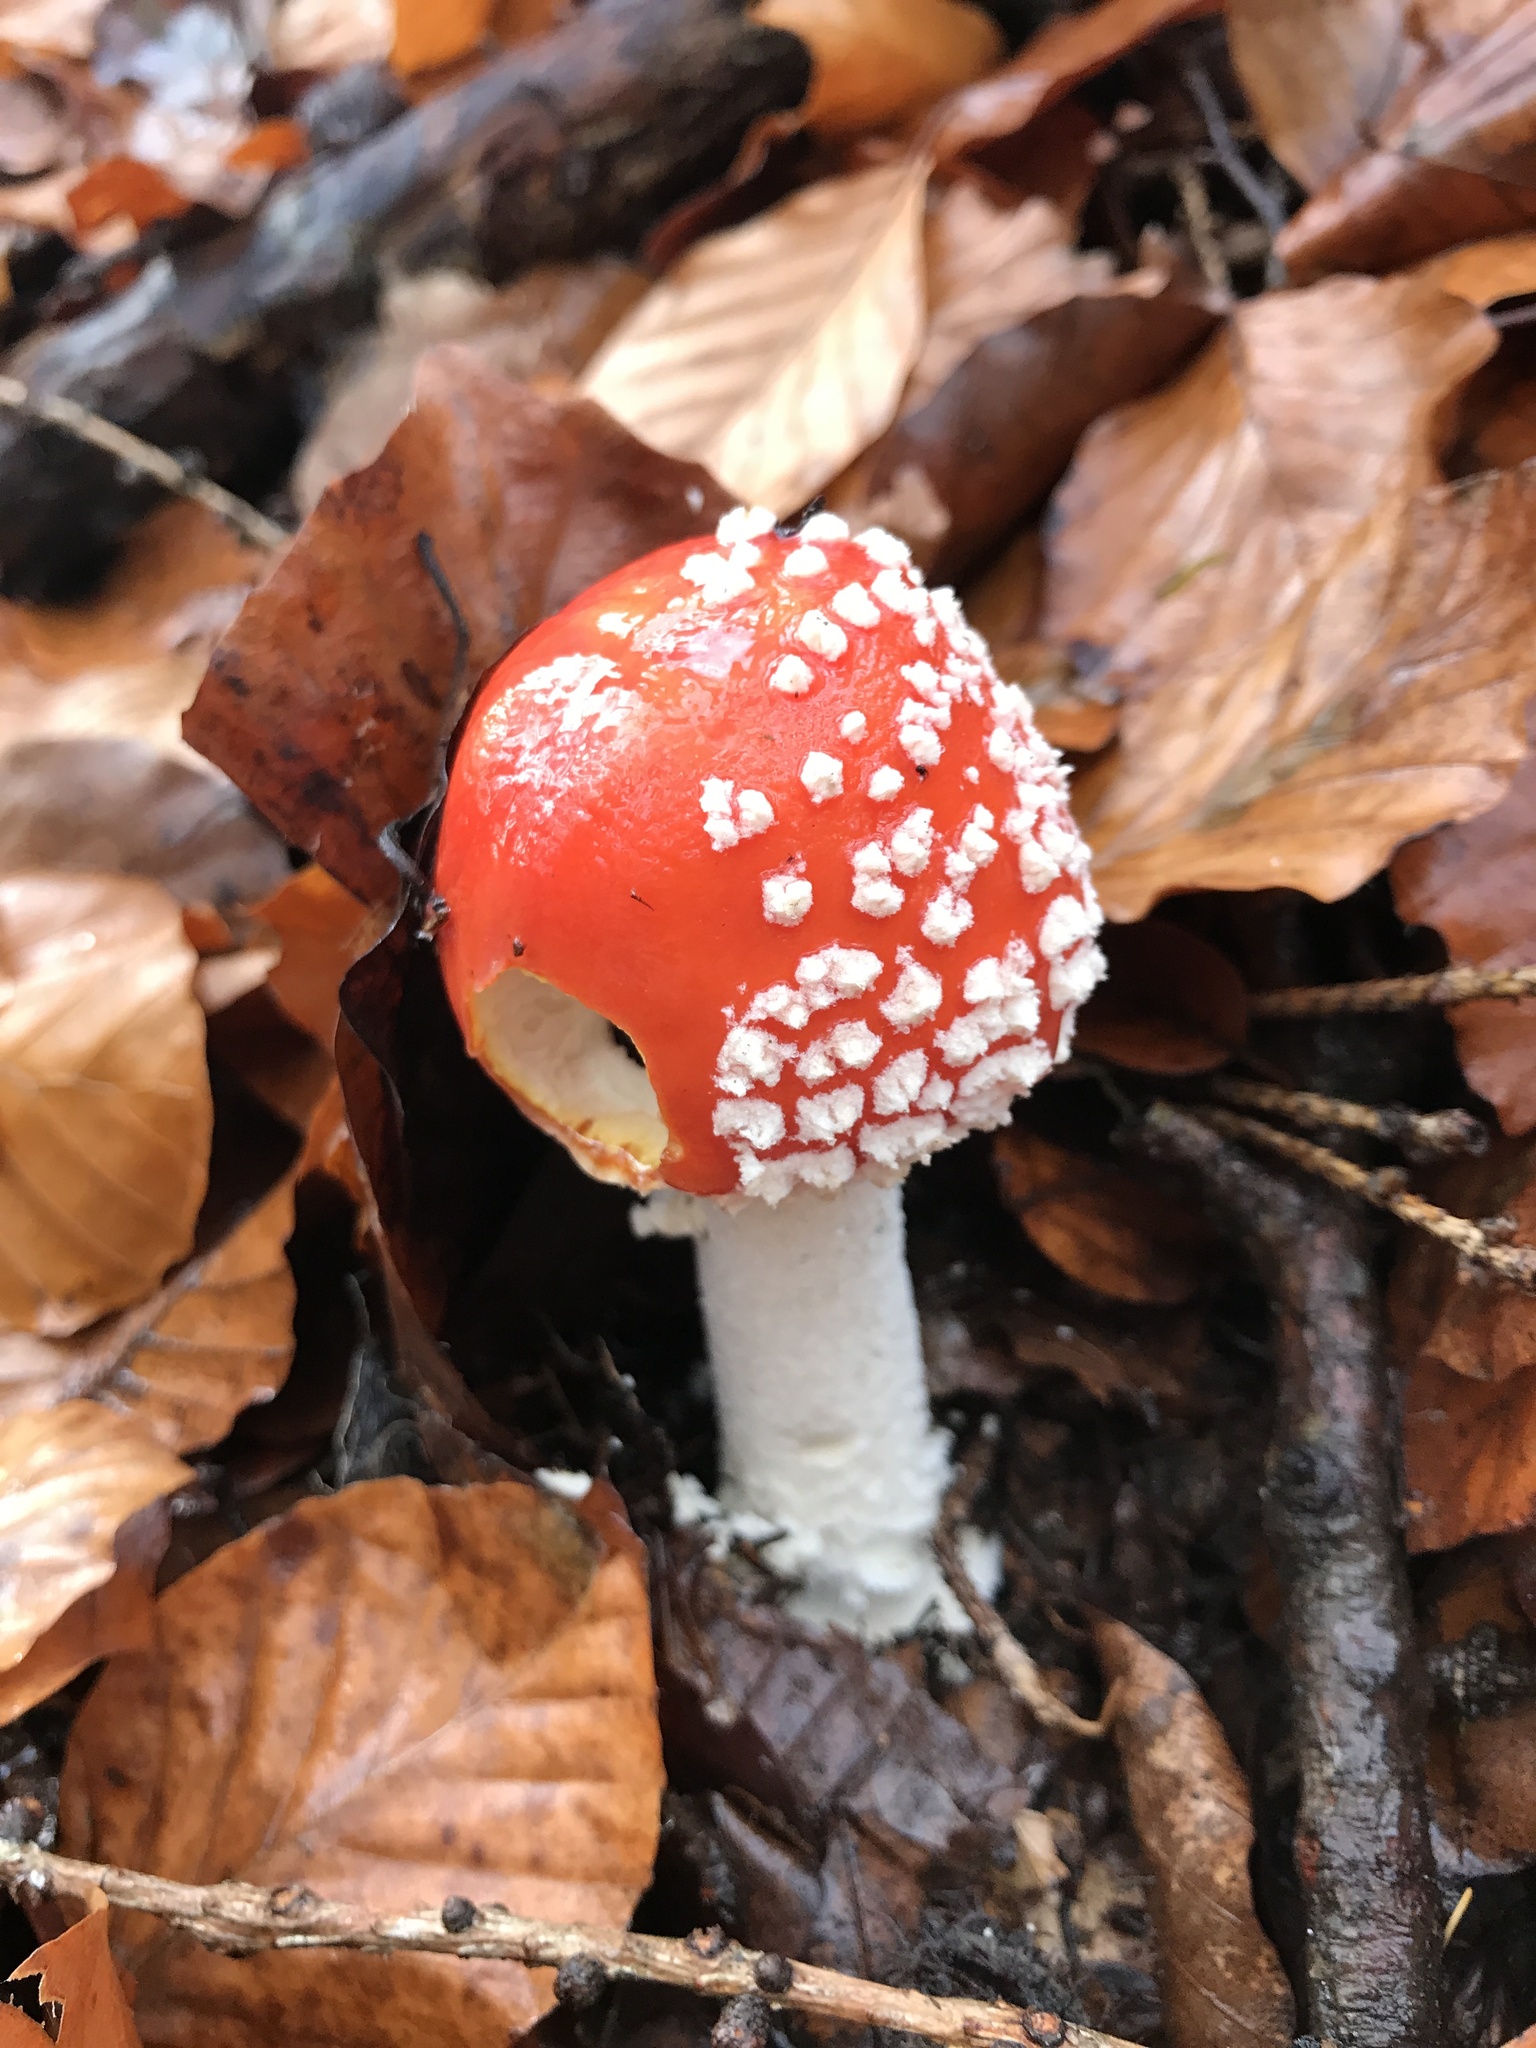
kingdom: Fungi
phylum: Basidiomycota
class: Agaricomycetes
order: Agaricales
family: Amanitaceae
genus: Amanita
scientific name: Amanita muscaria
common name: Fly agaric
